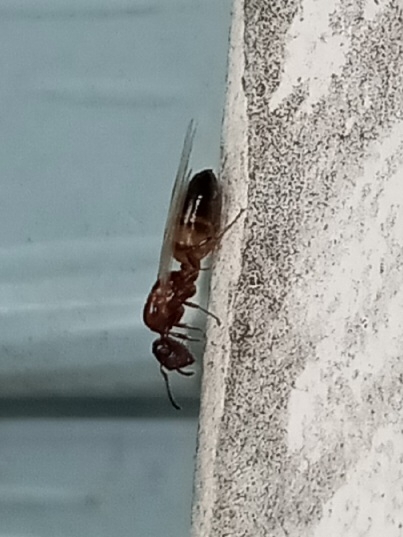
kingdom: Animalia
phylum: Arthropoda
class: Insecta
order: Hymenoptera
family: Formicidae
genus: Colobopsis
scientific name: Colobopsis impressa
